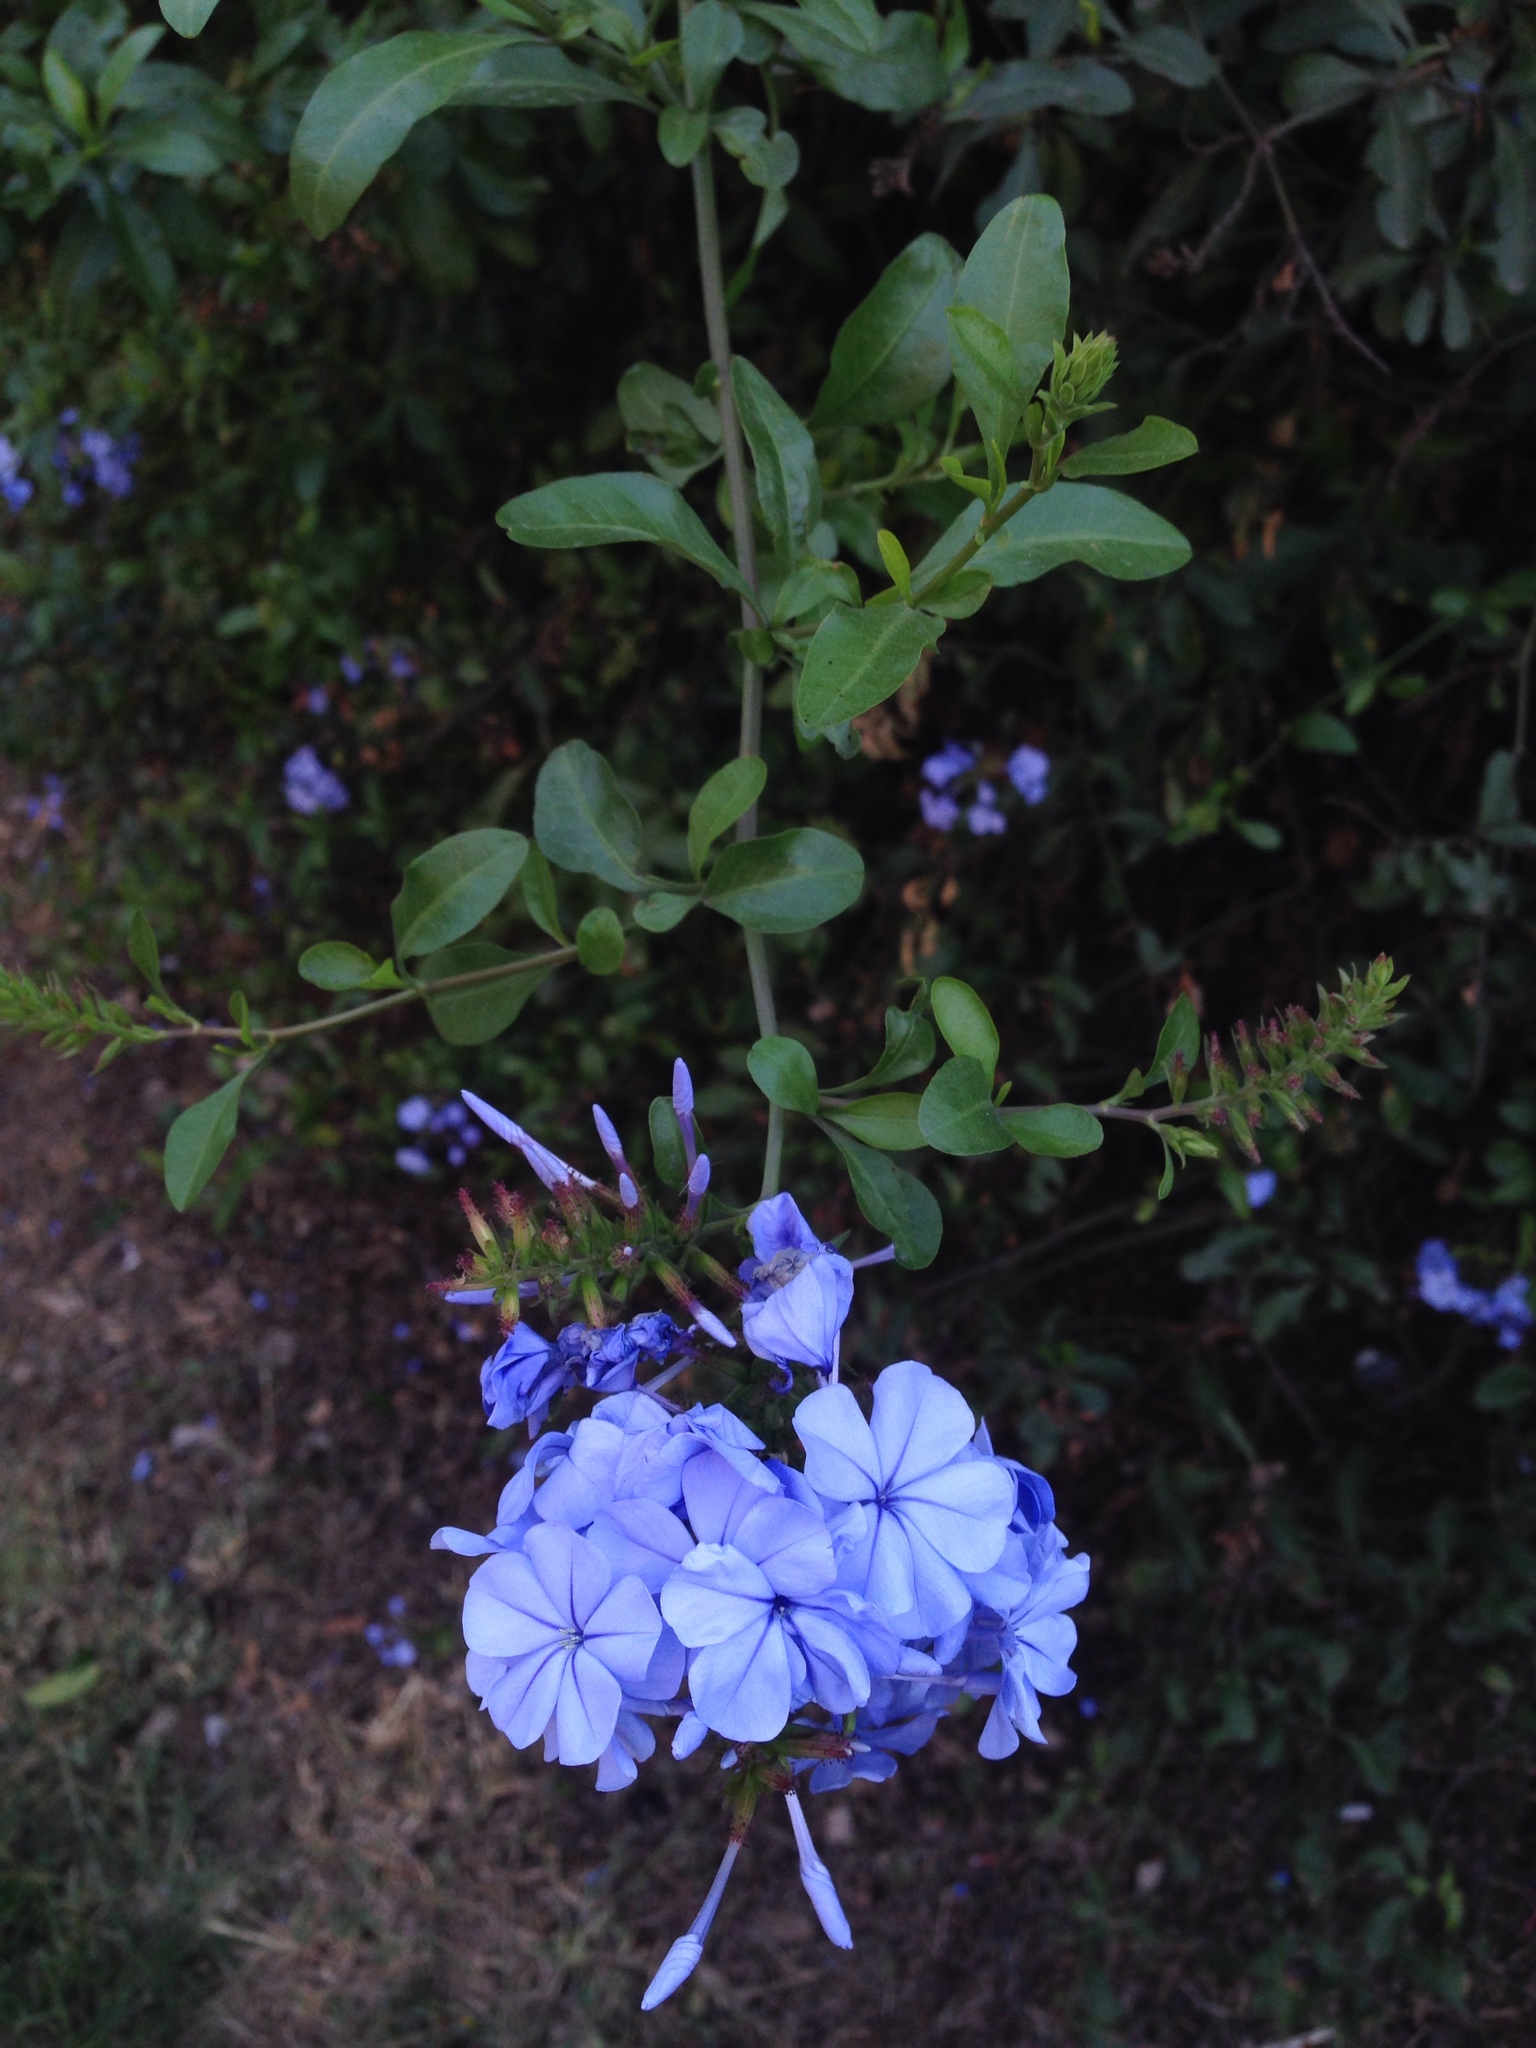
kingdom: Plantae
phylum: Tracheophyta
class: Magnoliopsida
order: Caryophyllales
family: Plumbaginaceae
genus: Plumbago
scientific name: Plumbago auriculata
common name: Cape leadwort
